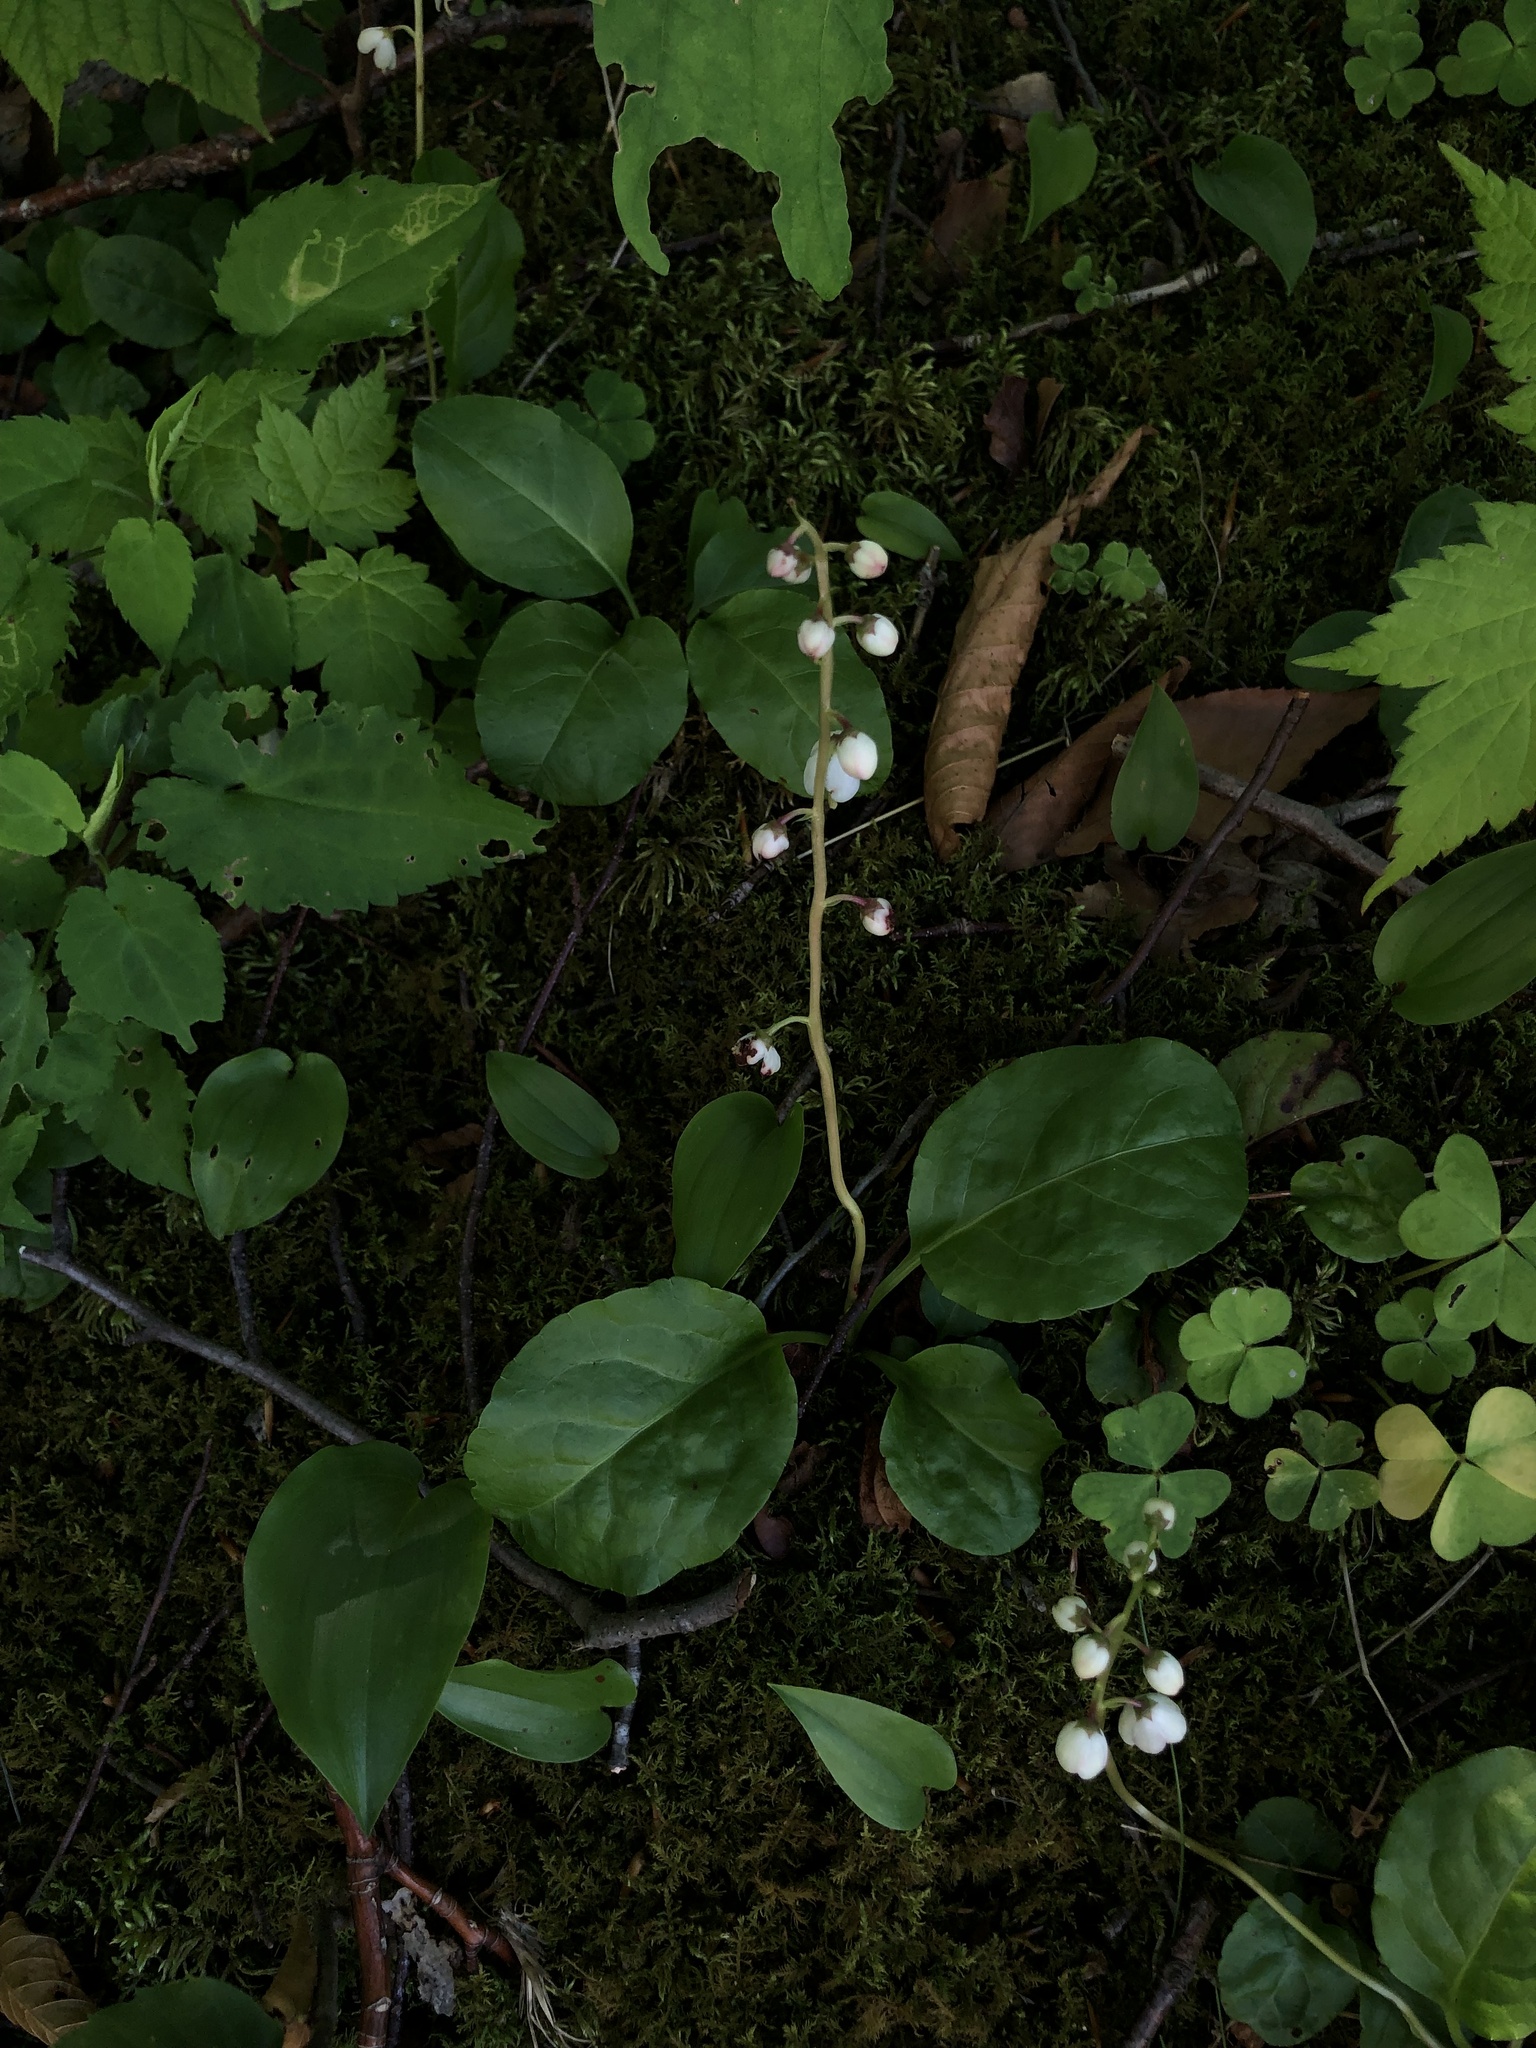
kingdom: Plantae
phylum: Tracheophyta
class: Magnoliopsida
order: Ericales
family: Ericaceae
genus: Pyrola
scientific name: Pyrola elliptica
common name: Shinleaf
